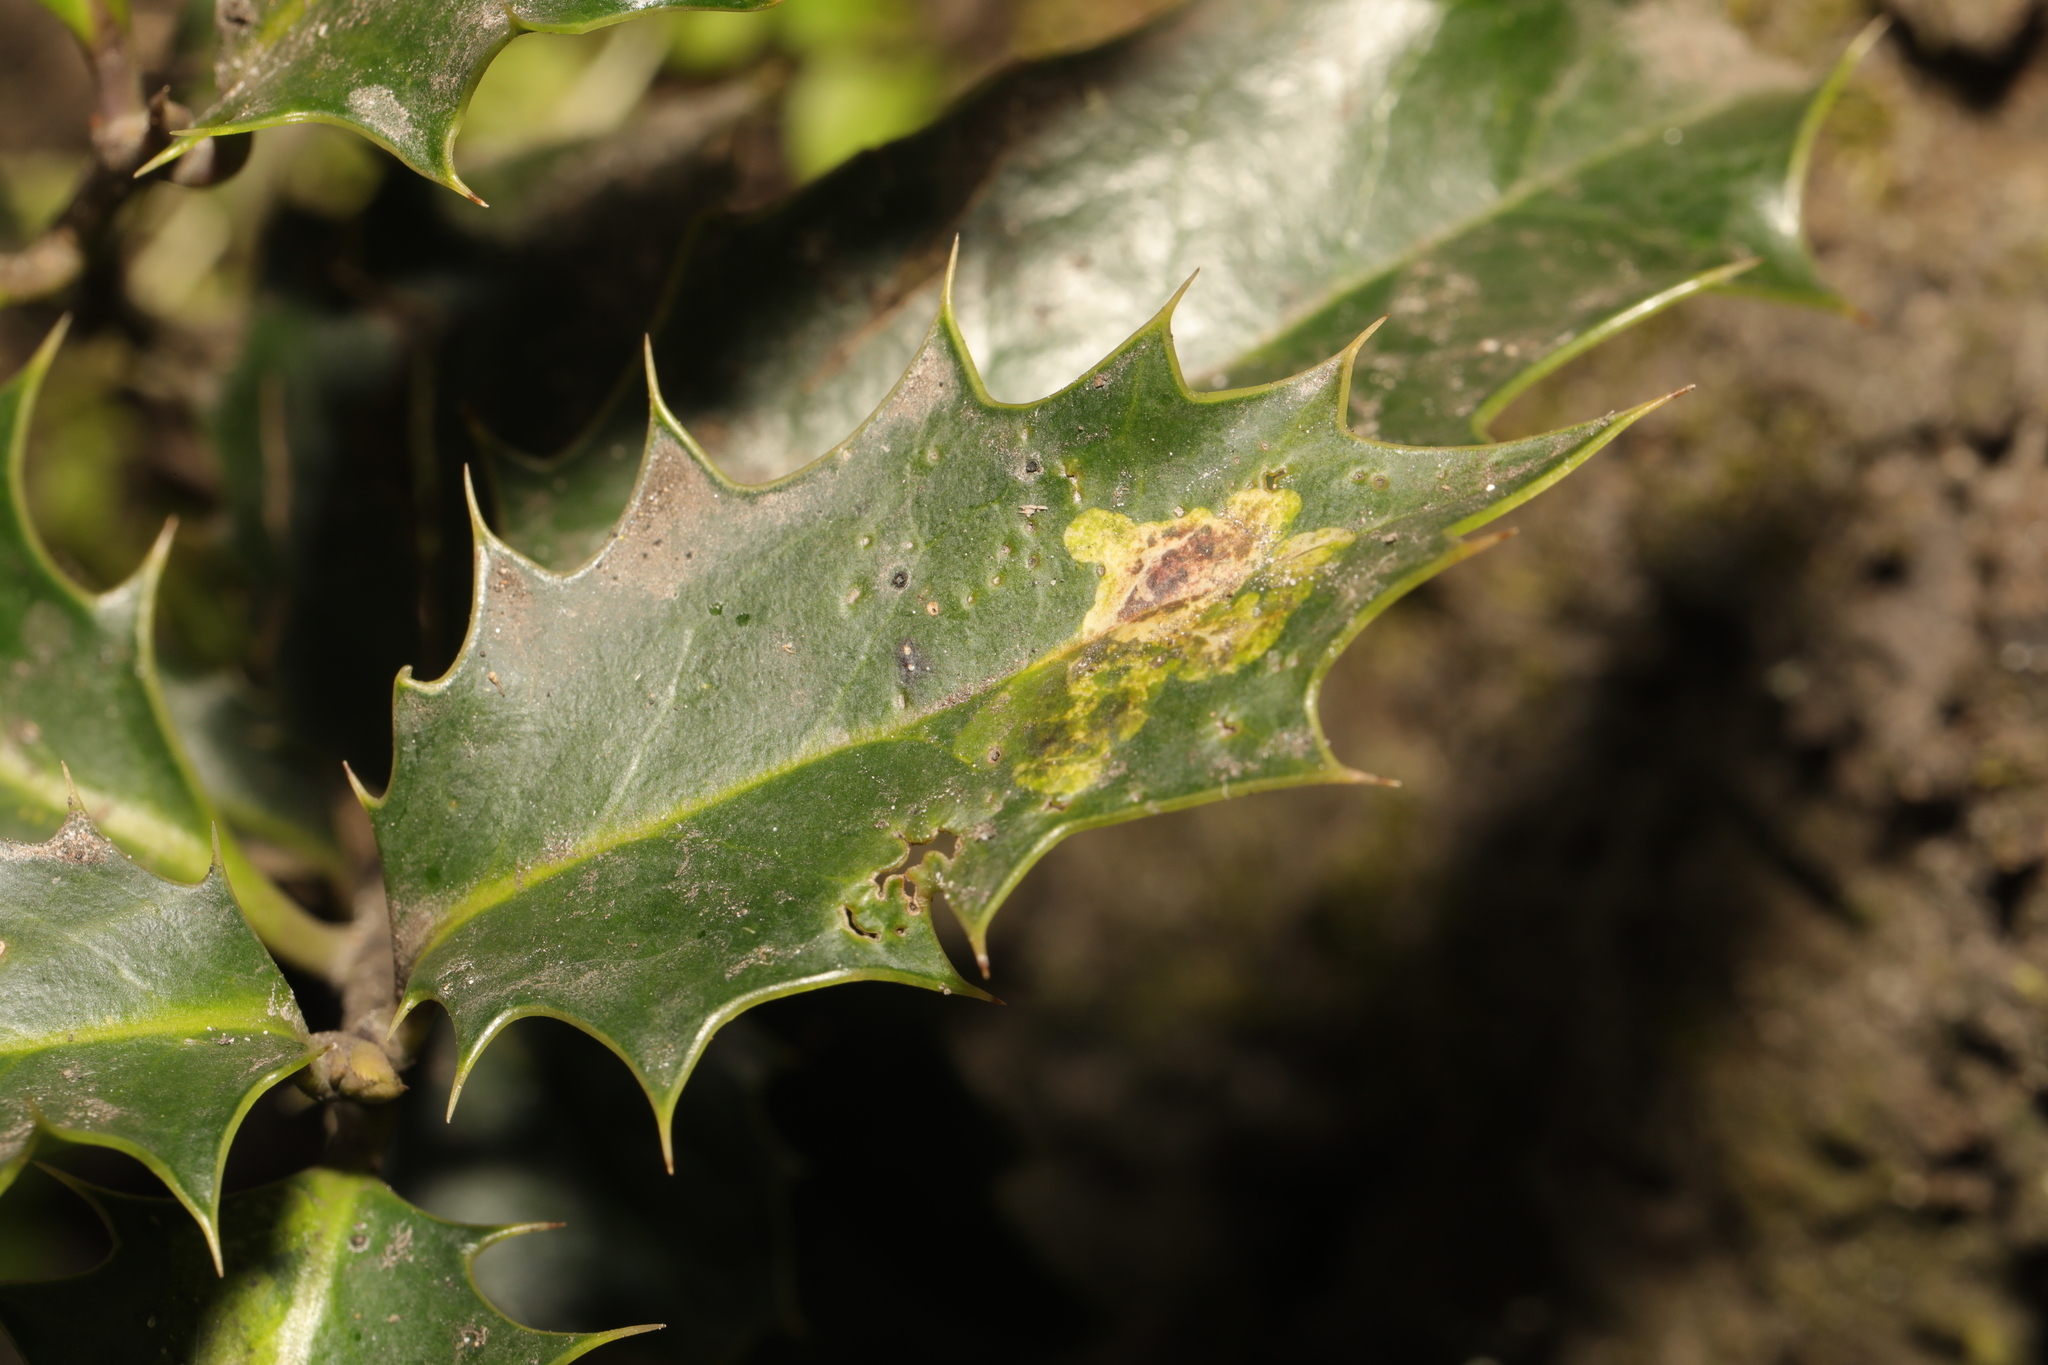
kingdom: Animalia
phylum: Arthropoda
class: Insecta
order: Diptera
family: Agromyzidae
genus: Phytomyza
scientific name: Phytomyza ilicis
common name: Holly leafminer
